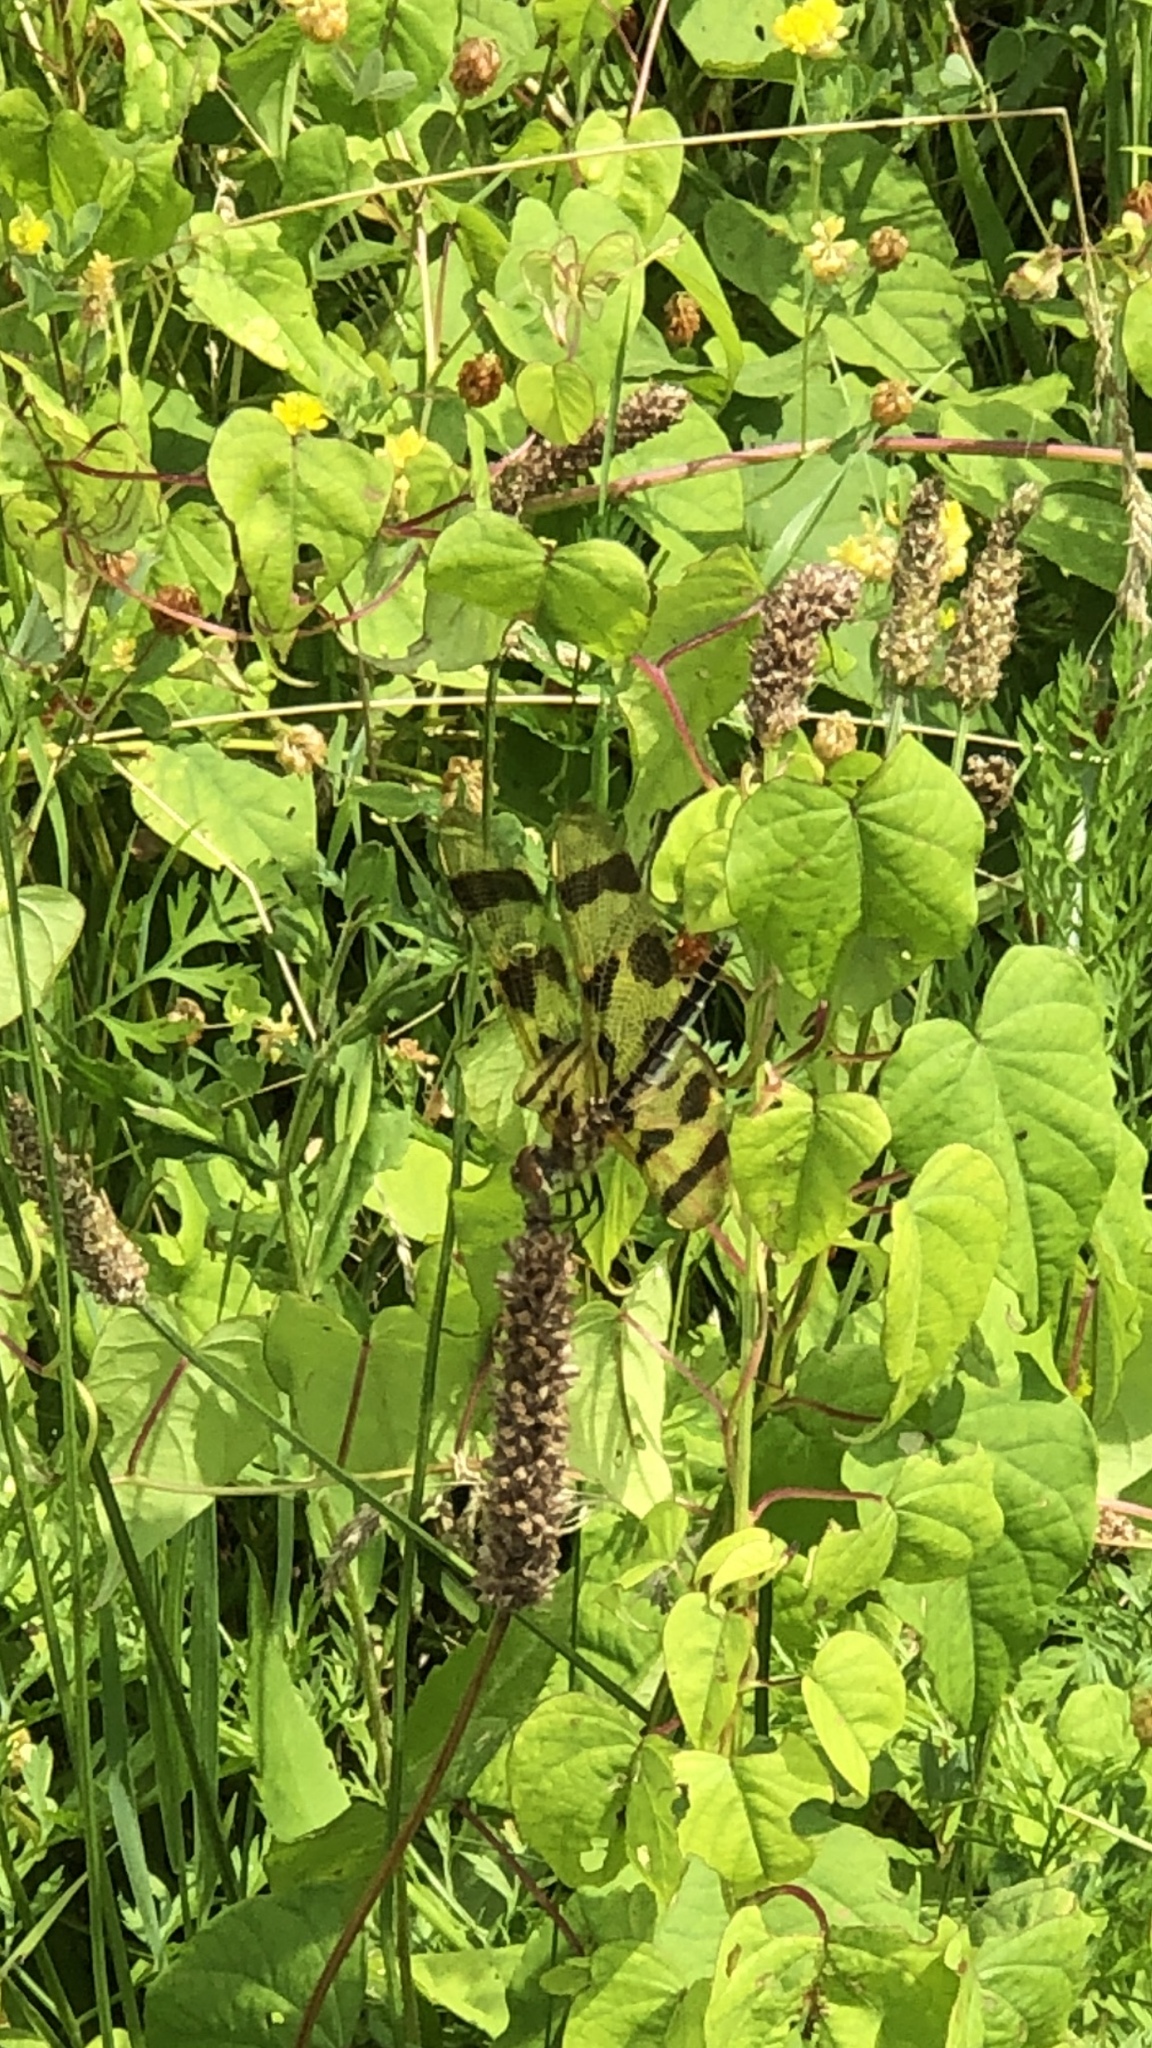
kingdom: Animalia
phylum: Arthropoda
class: Insecta
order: Odonata
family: Libellulidae
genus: Celithemis
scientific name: Celithemis eponina
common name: Halloween pennant
